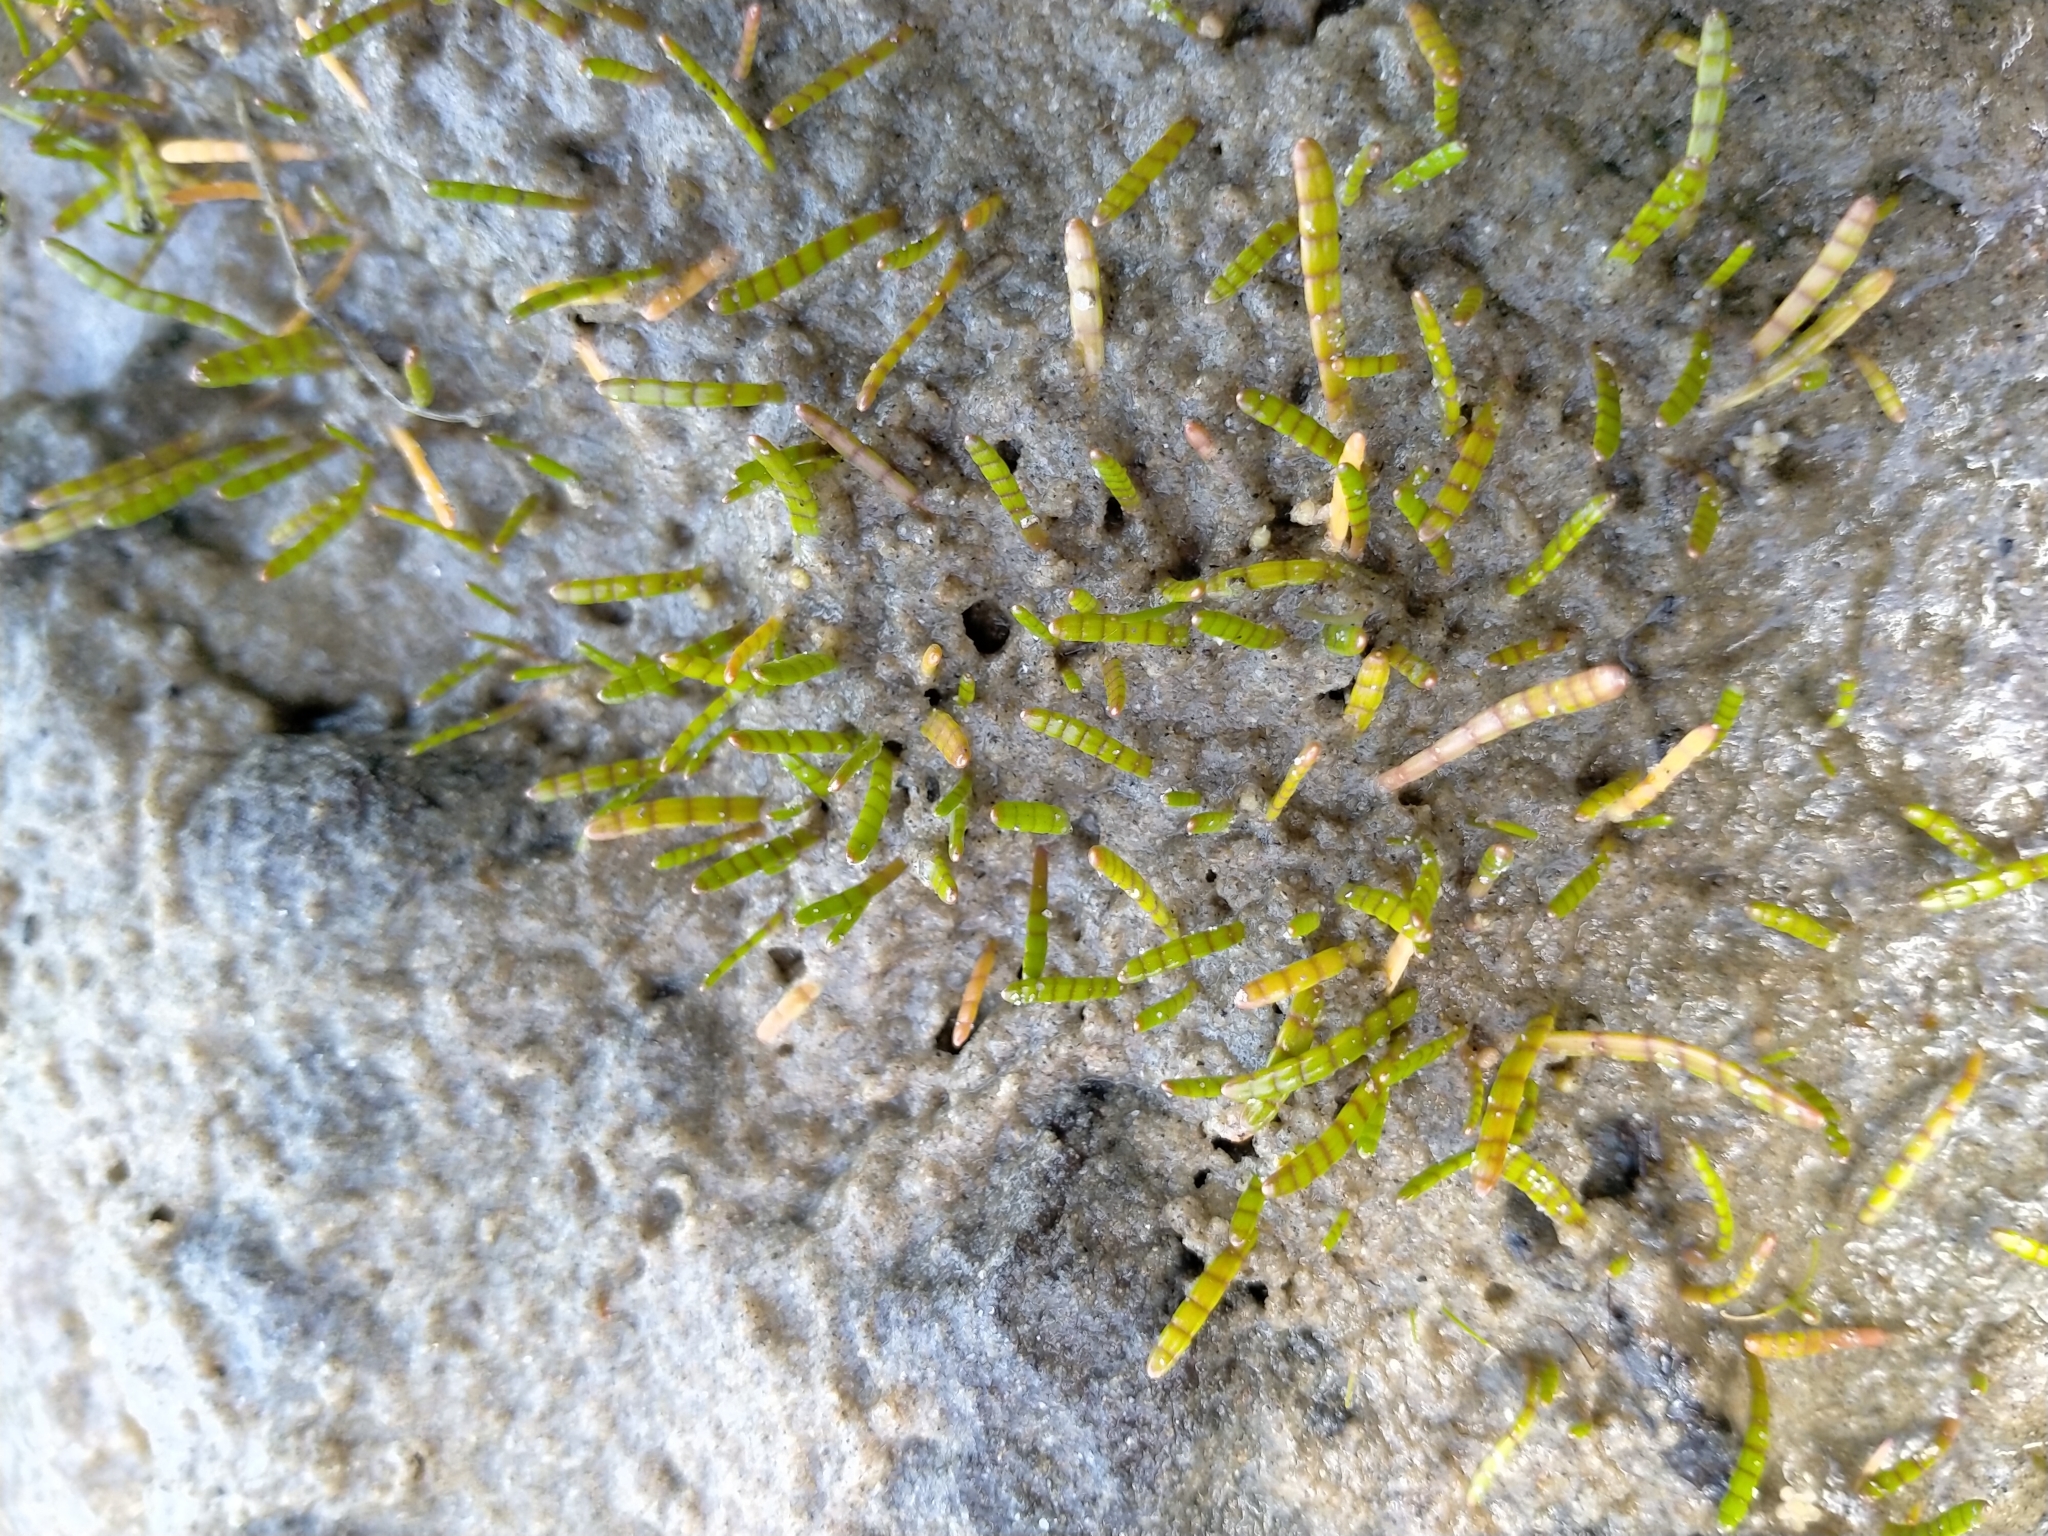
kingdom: Plantae
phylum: Tracheophyta
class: Magnoliopsida
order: Apiales
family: Apiaceae
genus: Lilaeopsis
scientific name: Lilaeopsis novae-zelandiae
